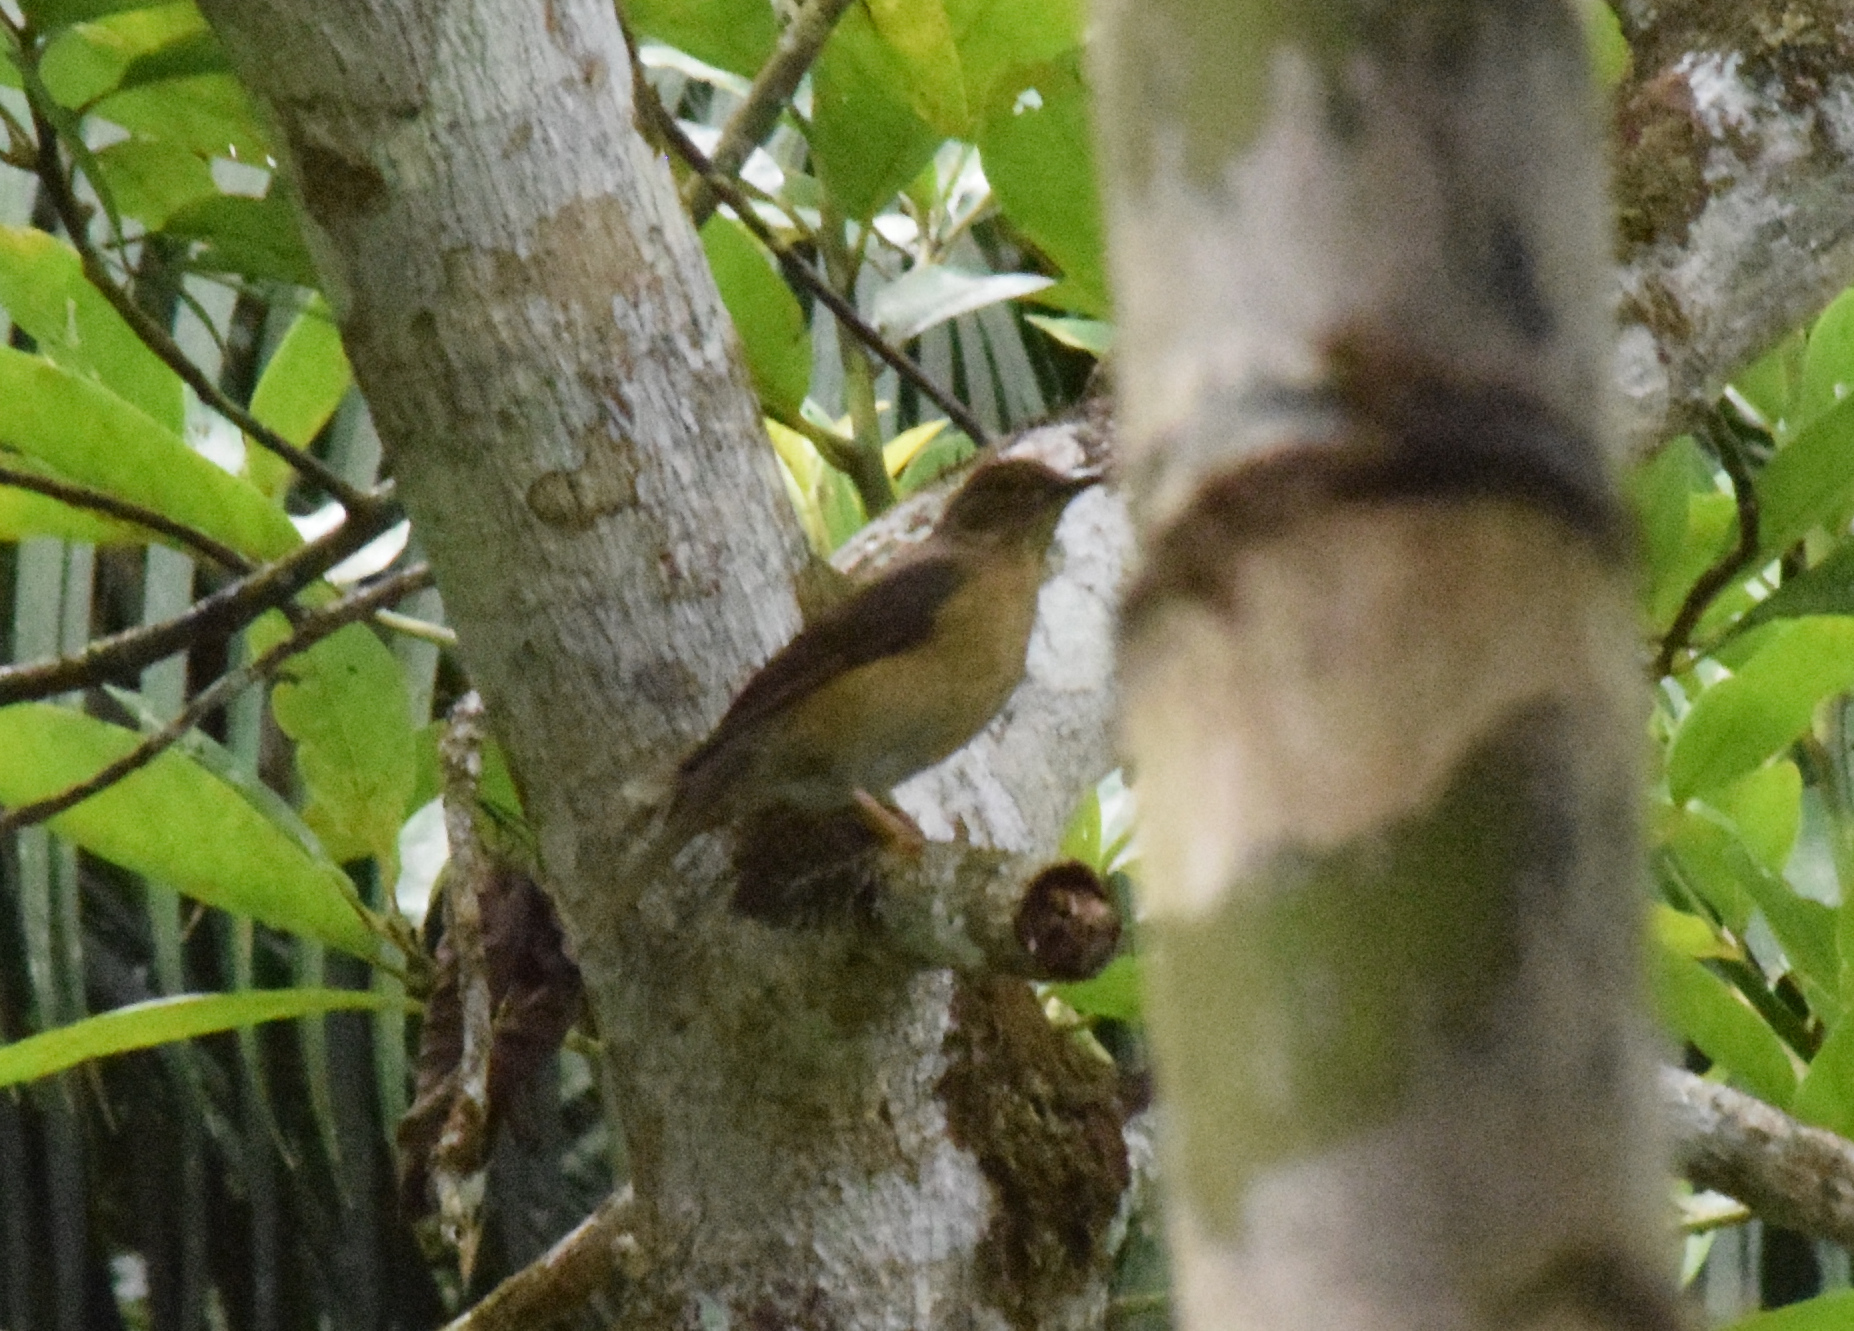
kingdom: Animalia
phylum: Chordata
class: Aves
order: Passeriformes
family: Turdidae
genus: Turdus
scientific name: Turdus flavipes
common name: Yellow-legged thrush
